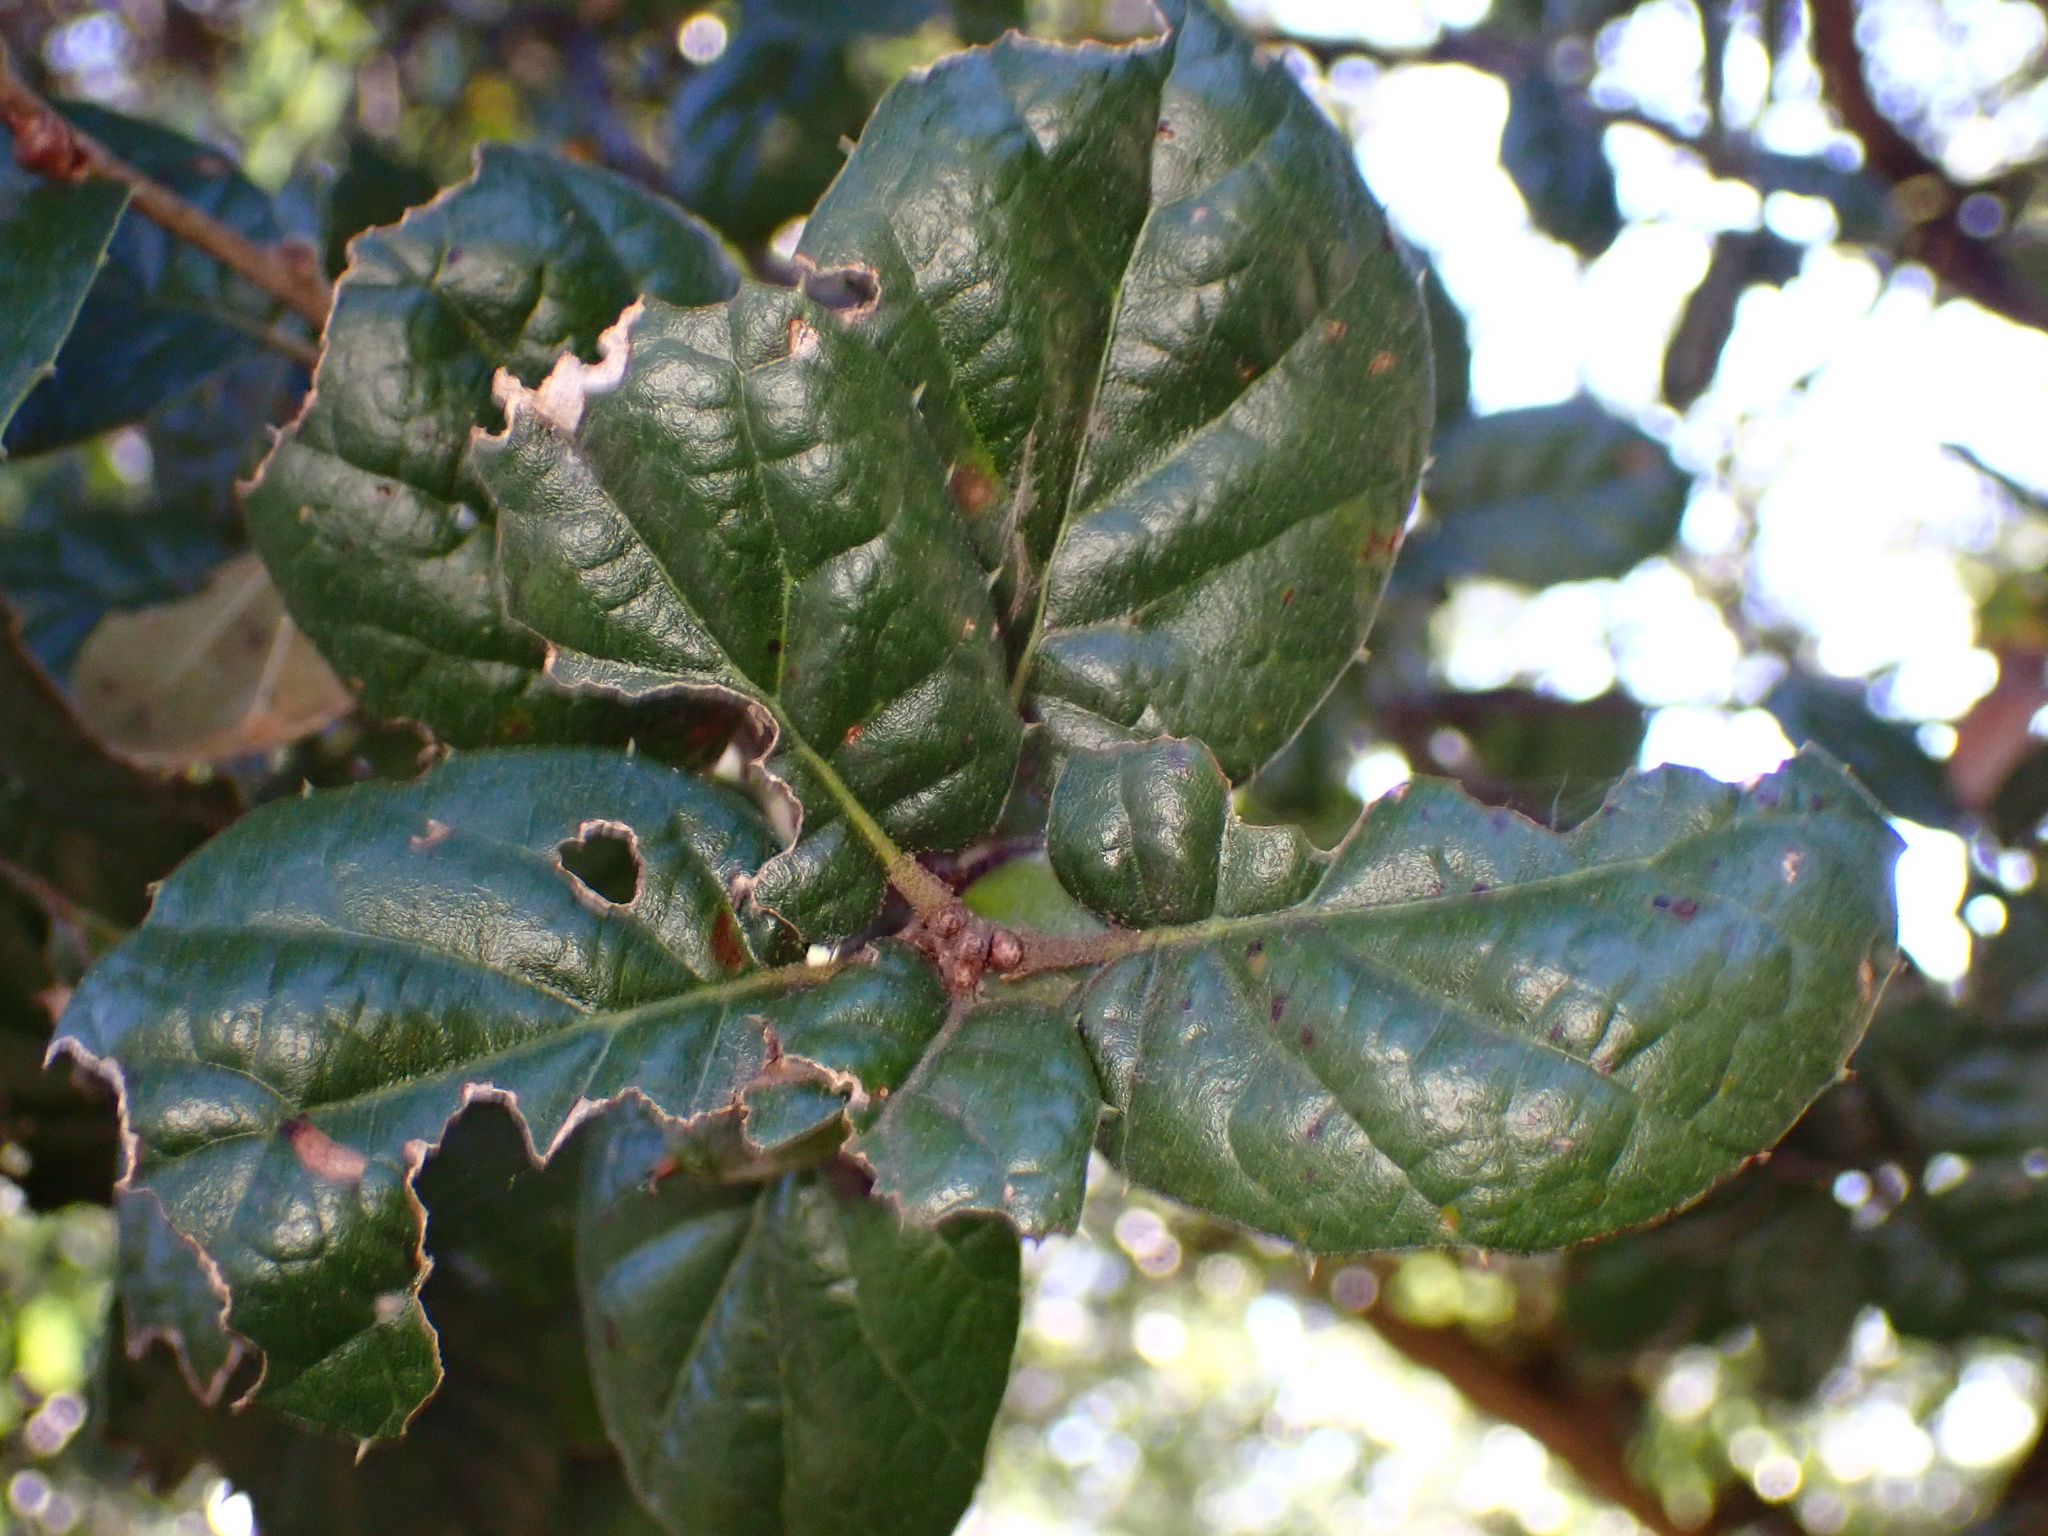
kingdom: Plantae
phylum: Tracheophyta
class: Magnoliopsida
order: Fagales
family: Fagaceae
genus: Quercus
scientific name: Quercus agrifolia
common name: California live oak
